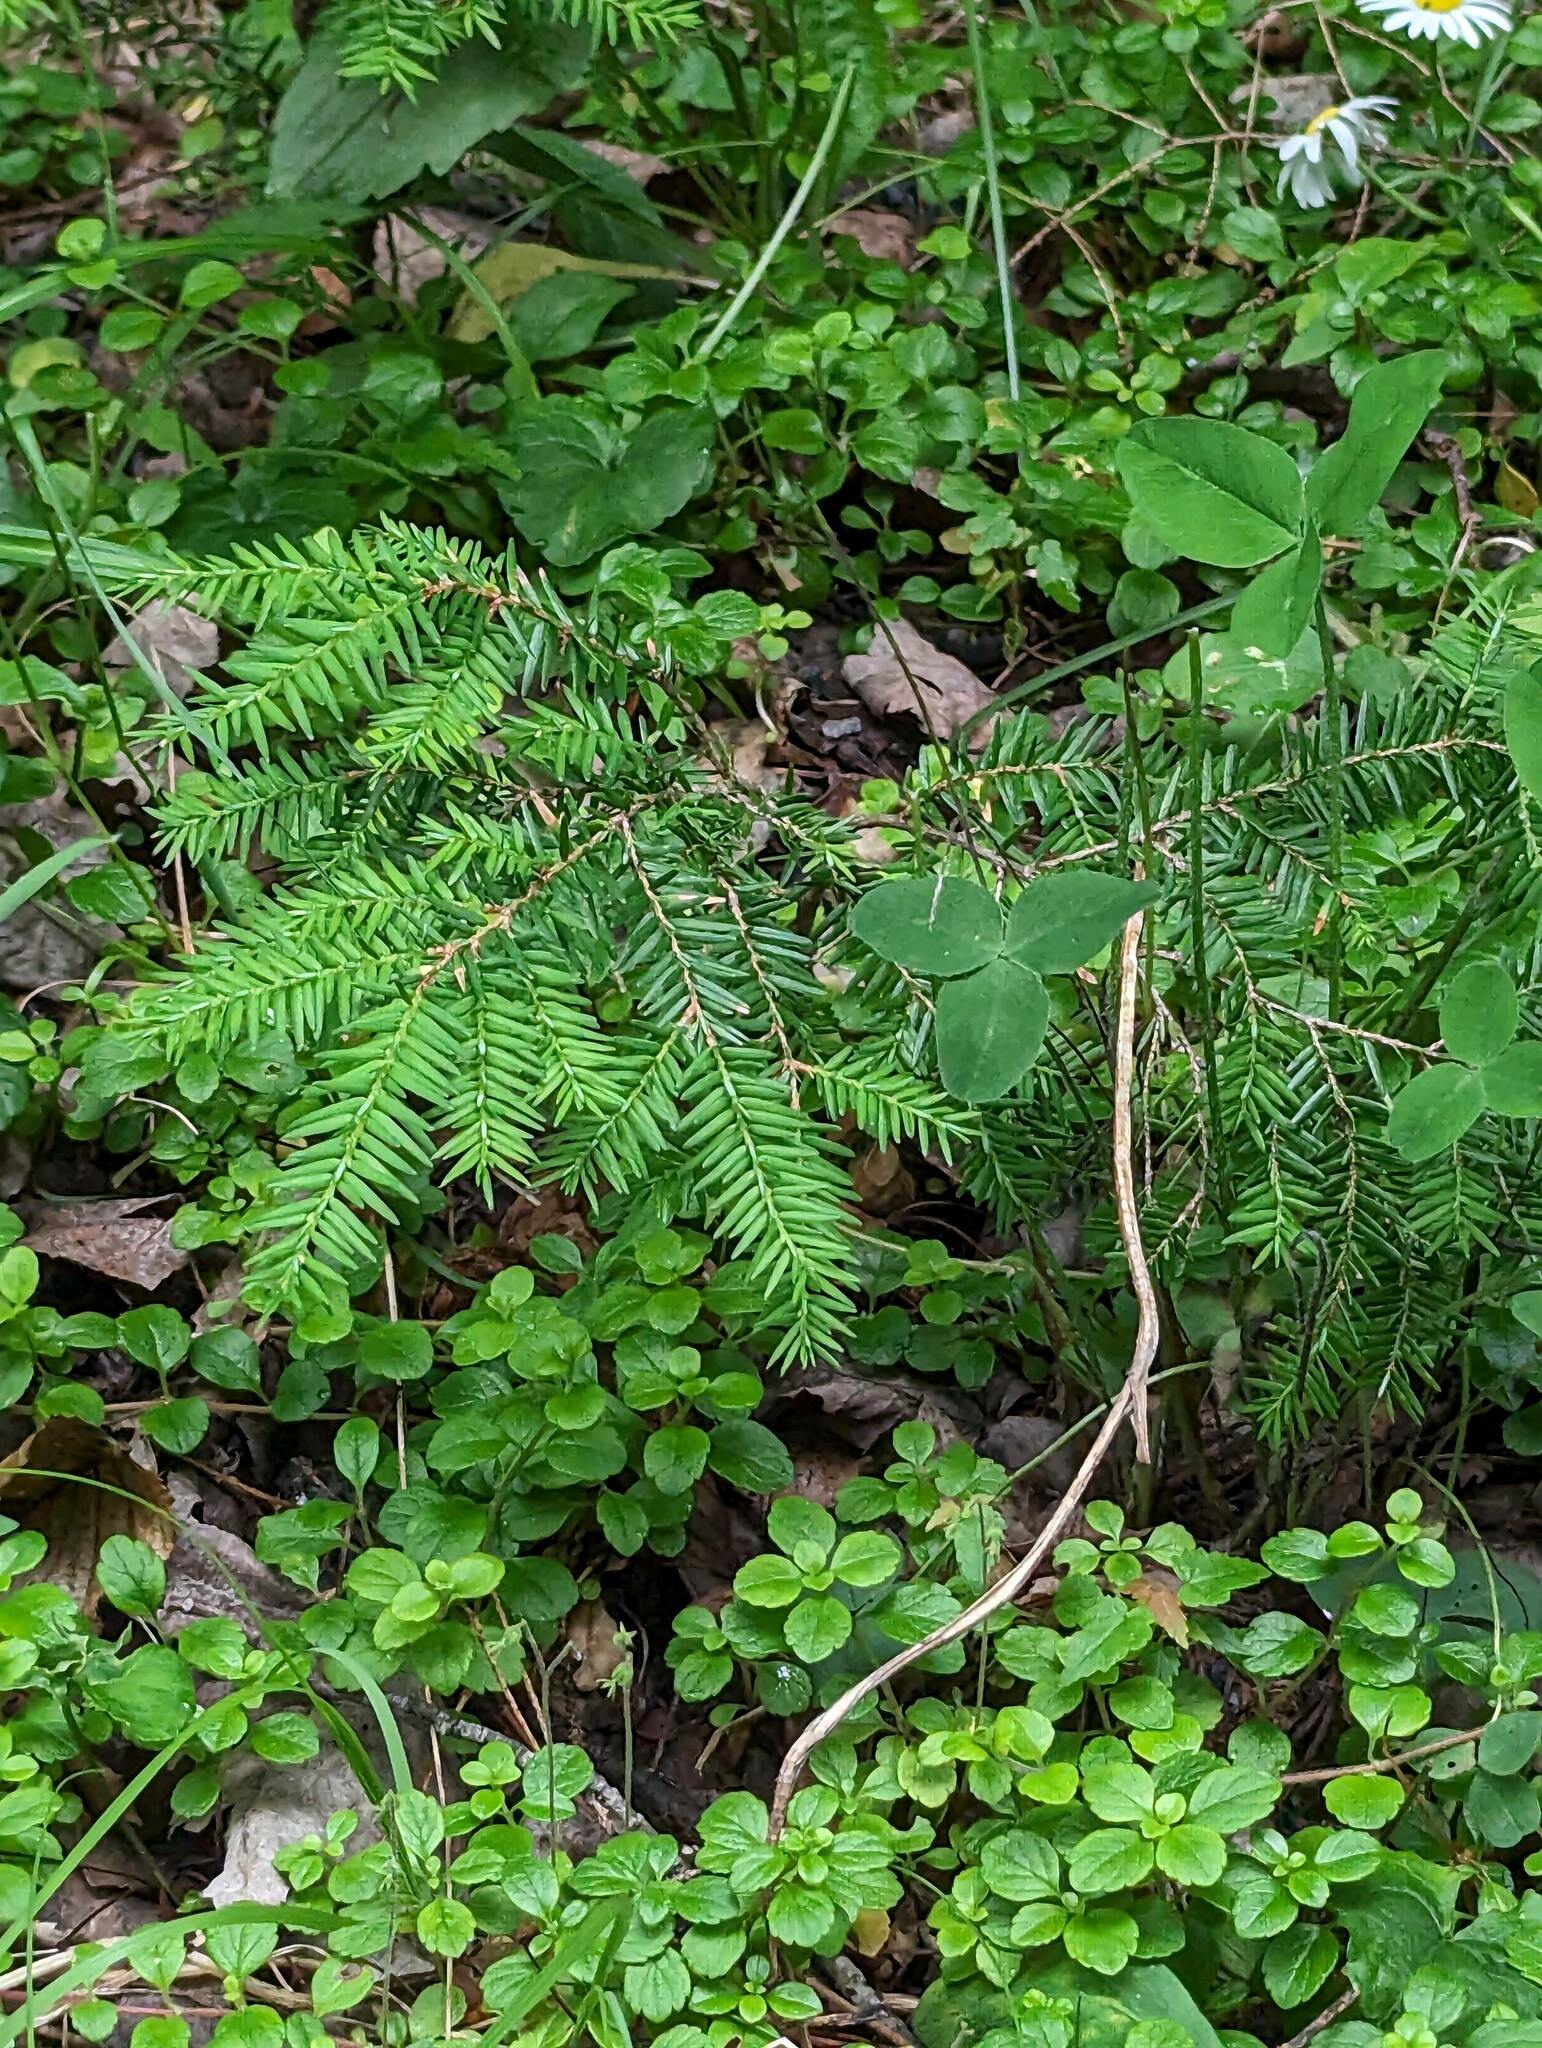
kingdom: Plantae
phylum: Tracheophyta
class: Pinopsida
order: Pinales
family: Pinaceae
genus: Tsuga
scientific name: Tsuga canadensis
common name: Eastern hemlock
